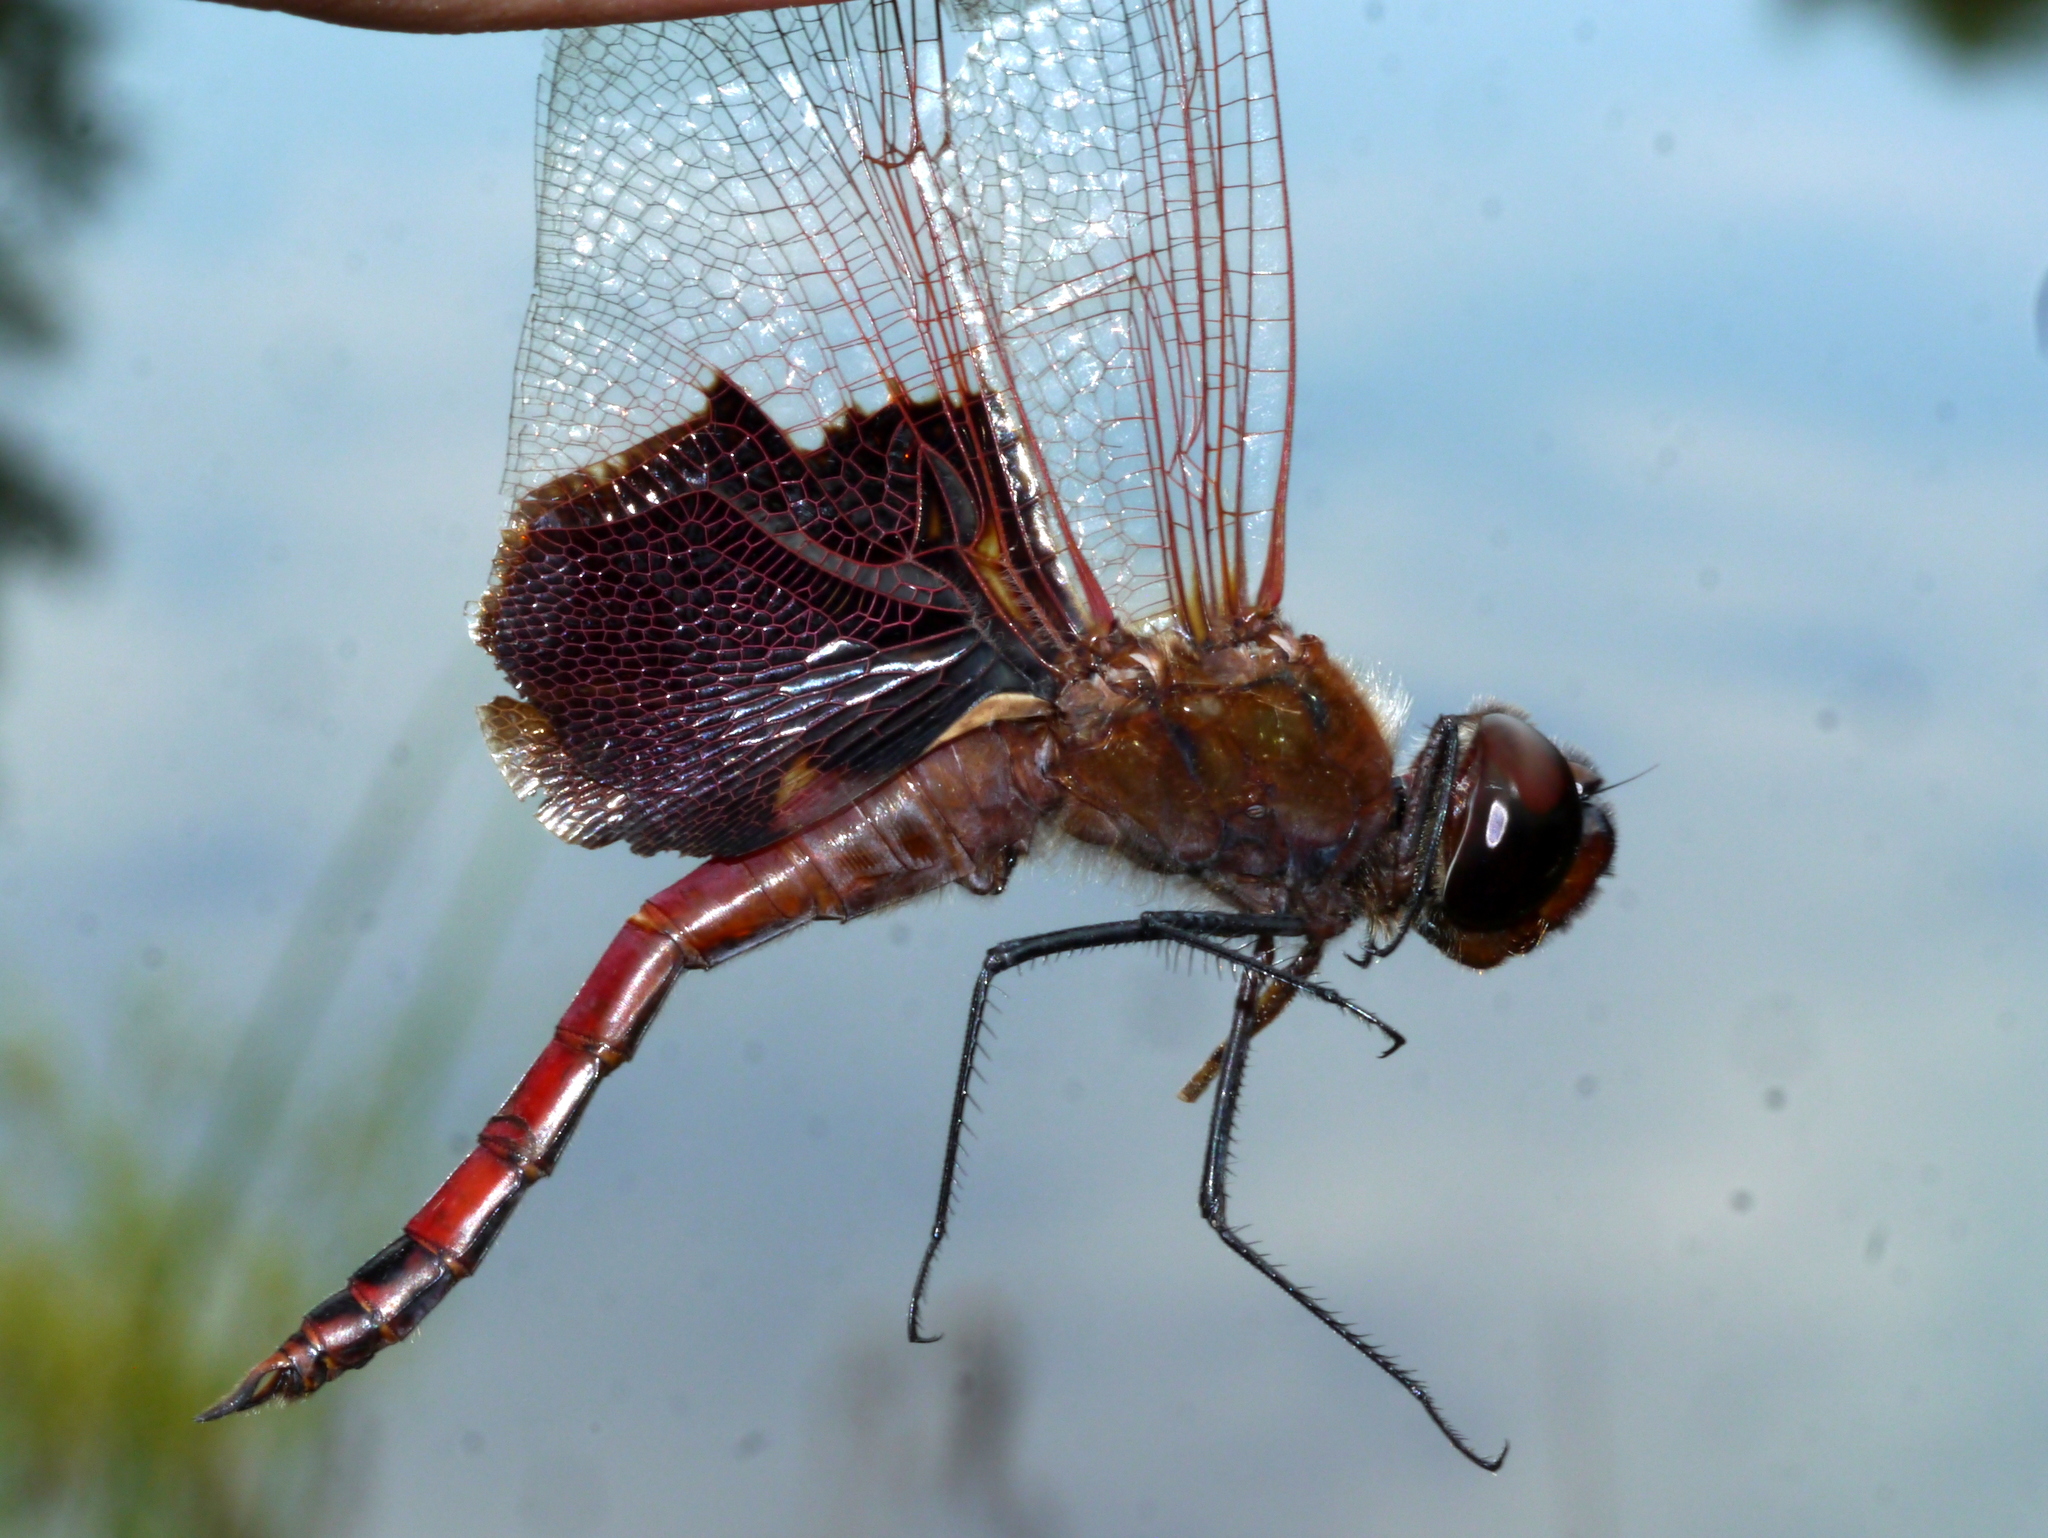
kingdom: Animalia
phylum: Arthropoda
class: Insecta
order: Odonata
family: Libellulidae
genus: Tramea
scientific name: Tramea carolina
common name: Carolina saddlebags
